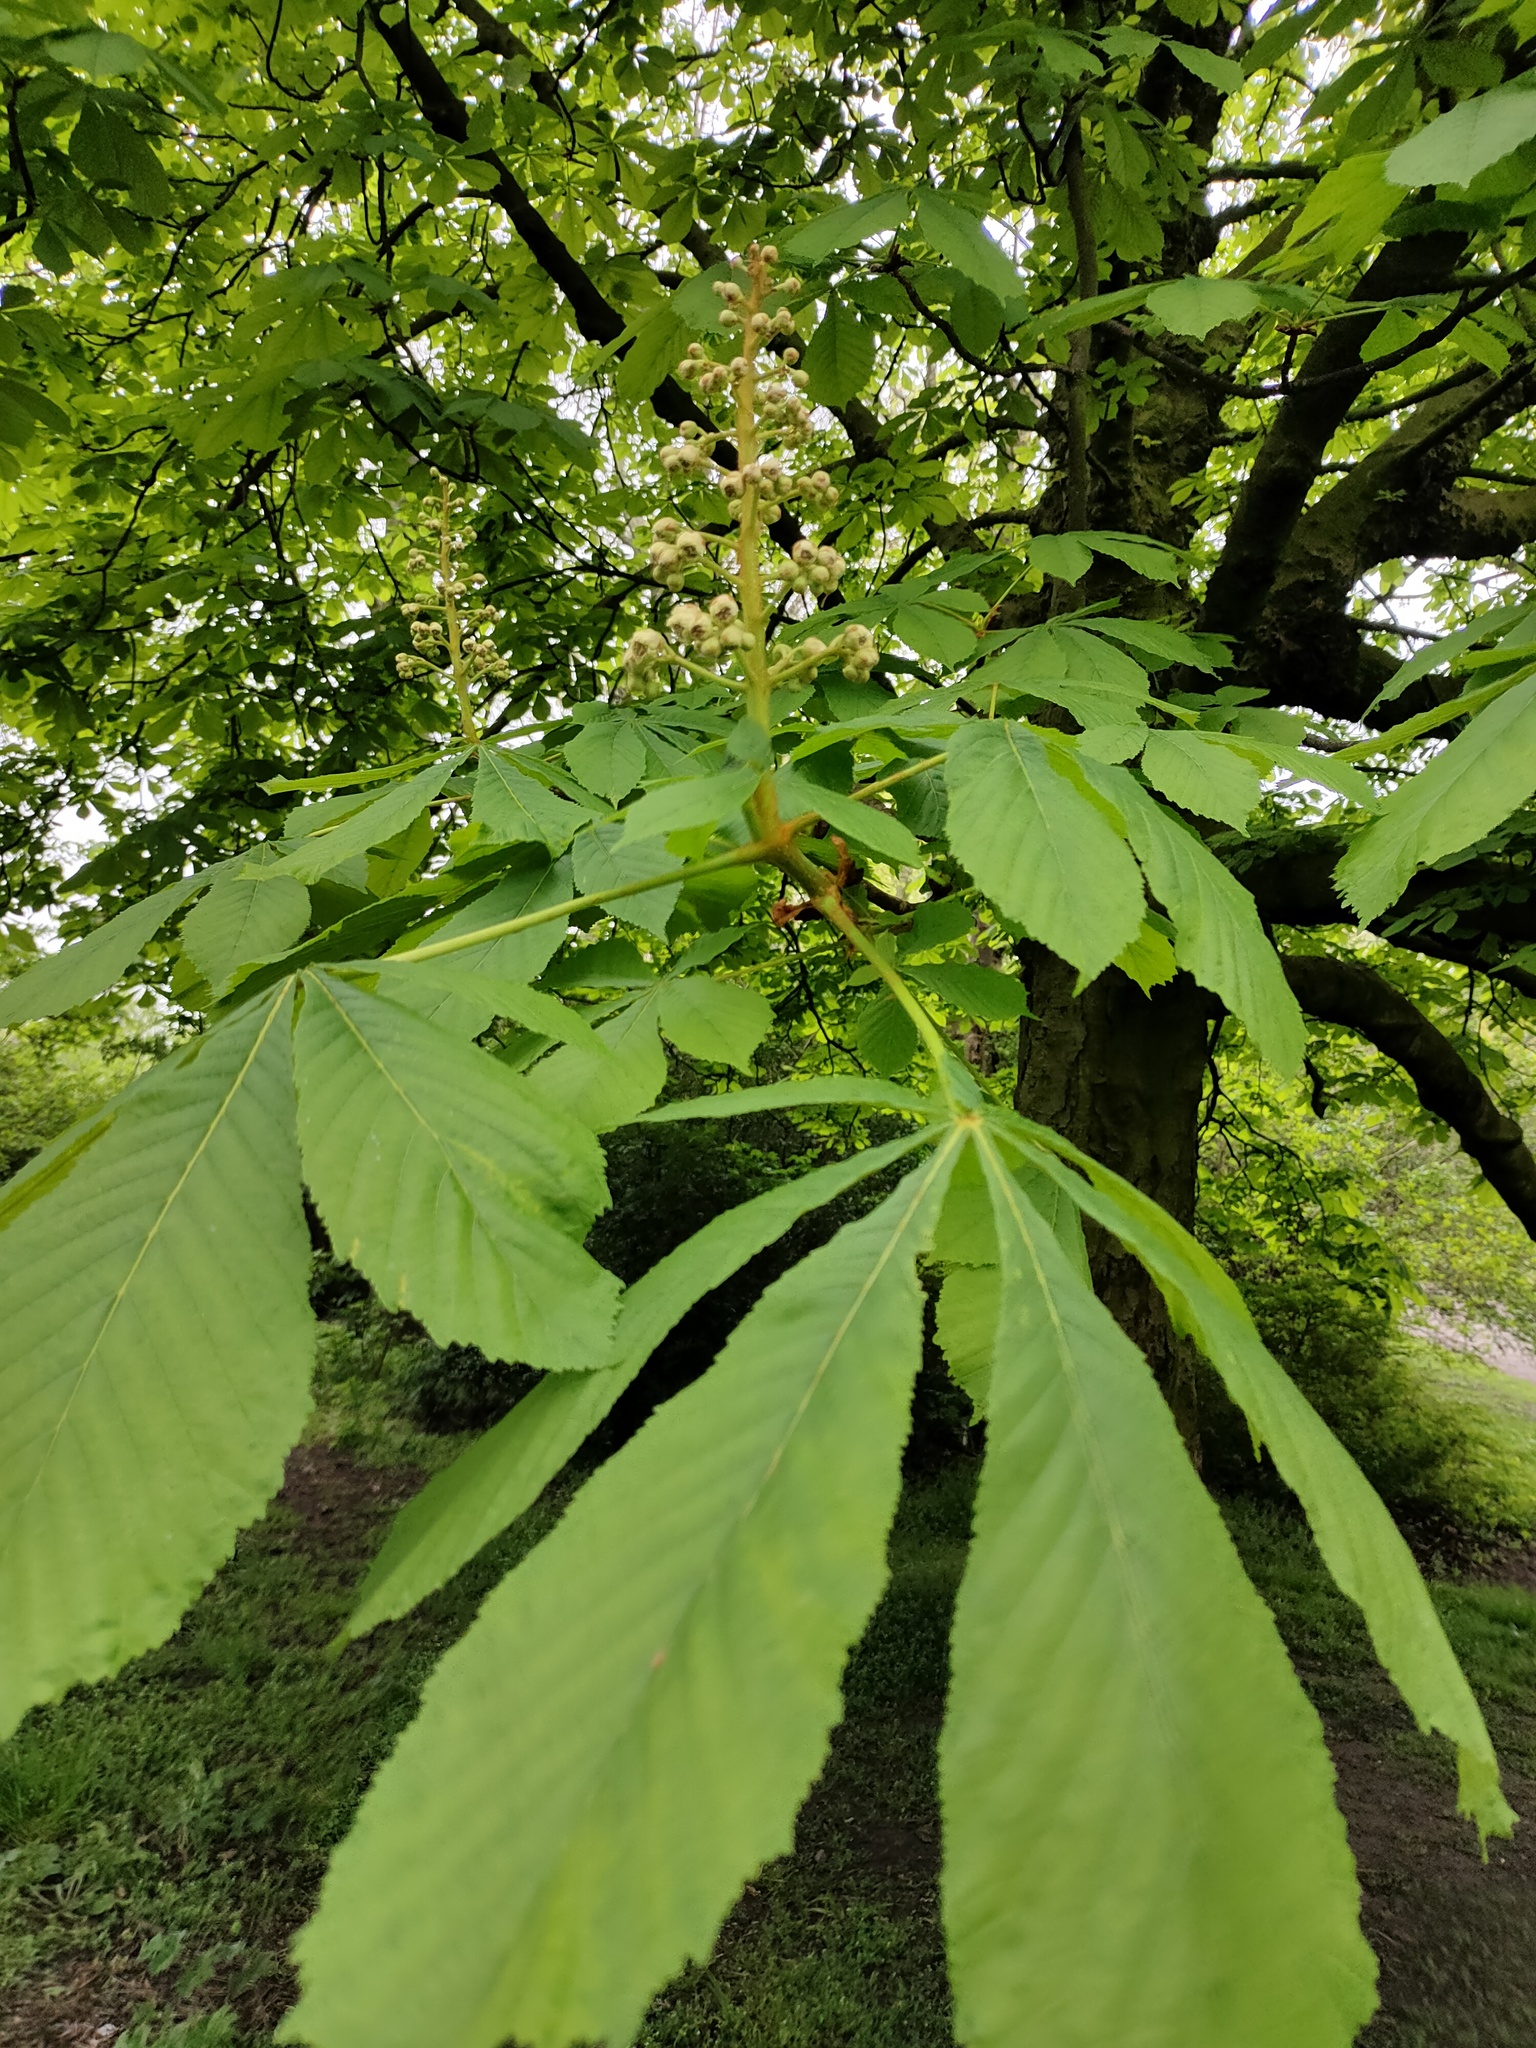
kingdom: Plantae
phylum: Tracheophyta
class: Magnoliopsida
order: Sapindales
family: Sapindaceae
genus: Aesculus
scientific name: Aesculus hippocastanum
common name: Horse-chestnut
